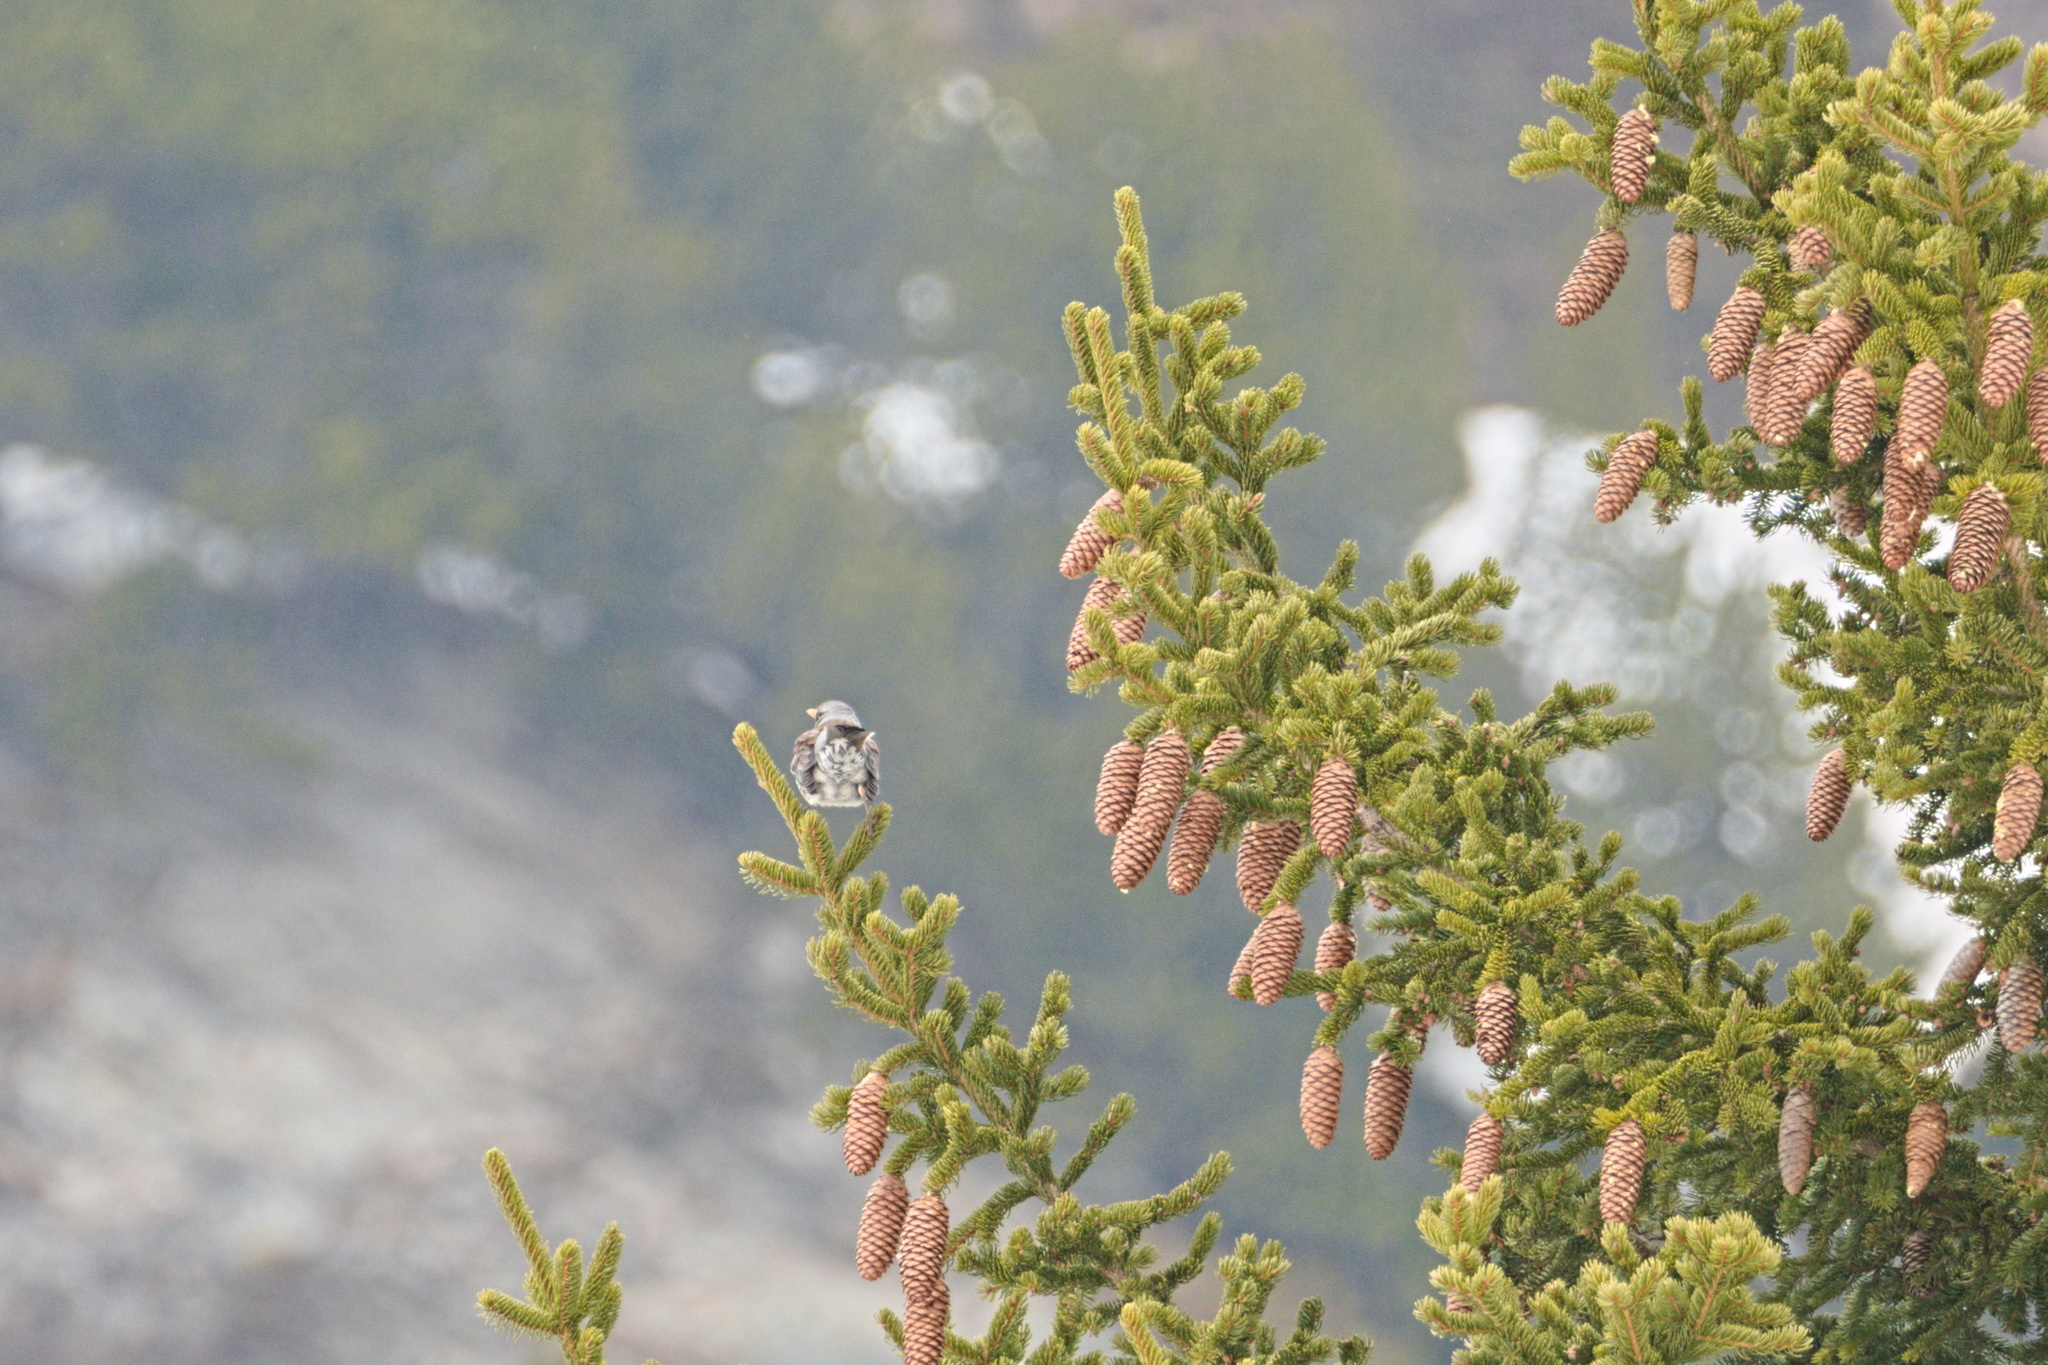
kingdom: Animalia
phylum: Chordata
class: Aves
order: Passeriformes
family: Turdidae
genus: Turdus
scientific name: Turdus pilaris
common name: Fieldfare
